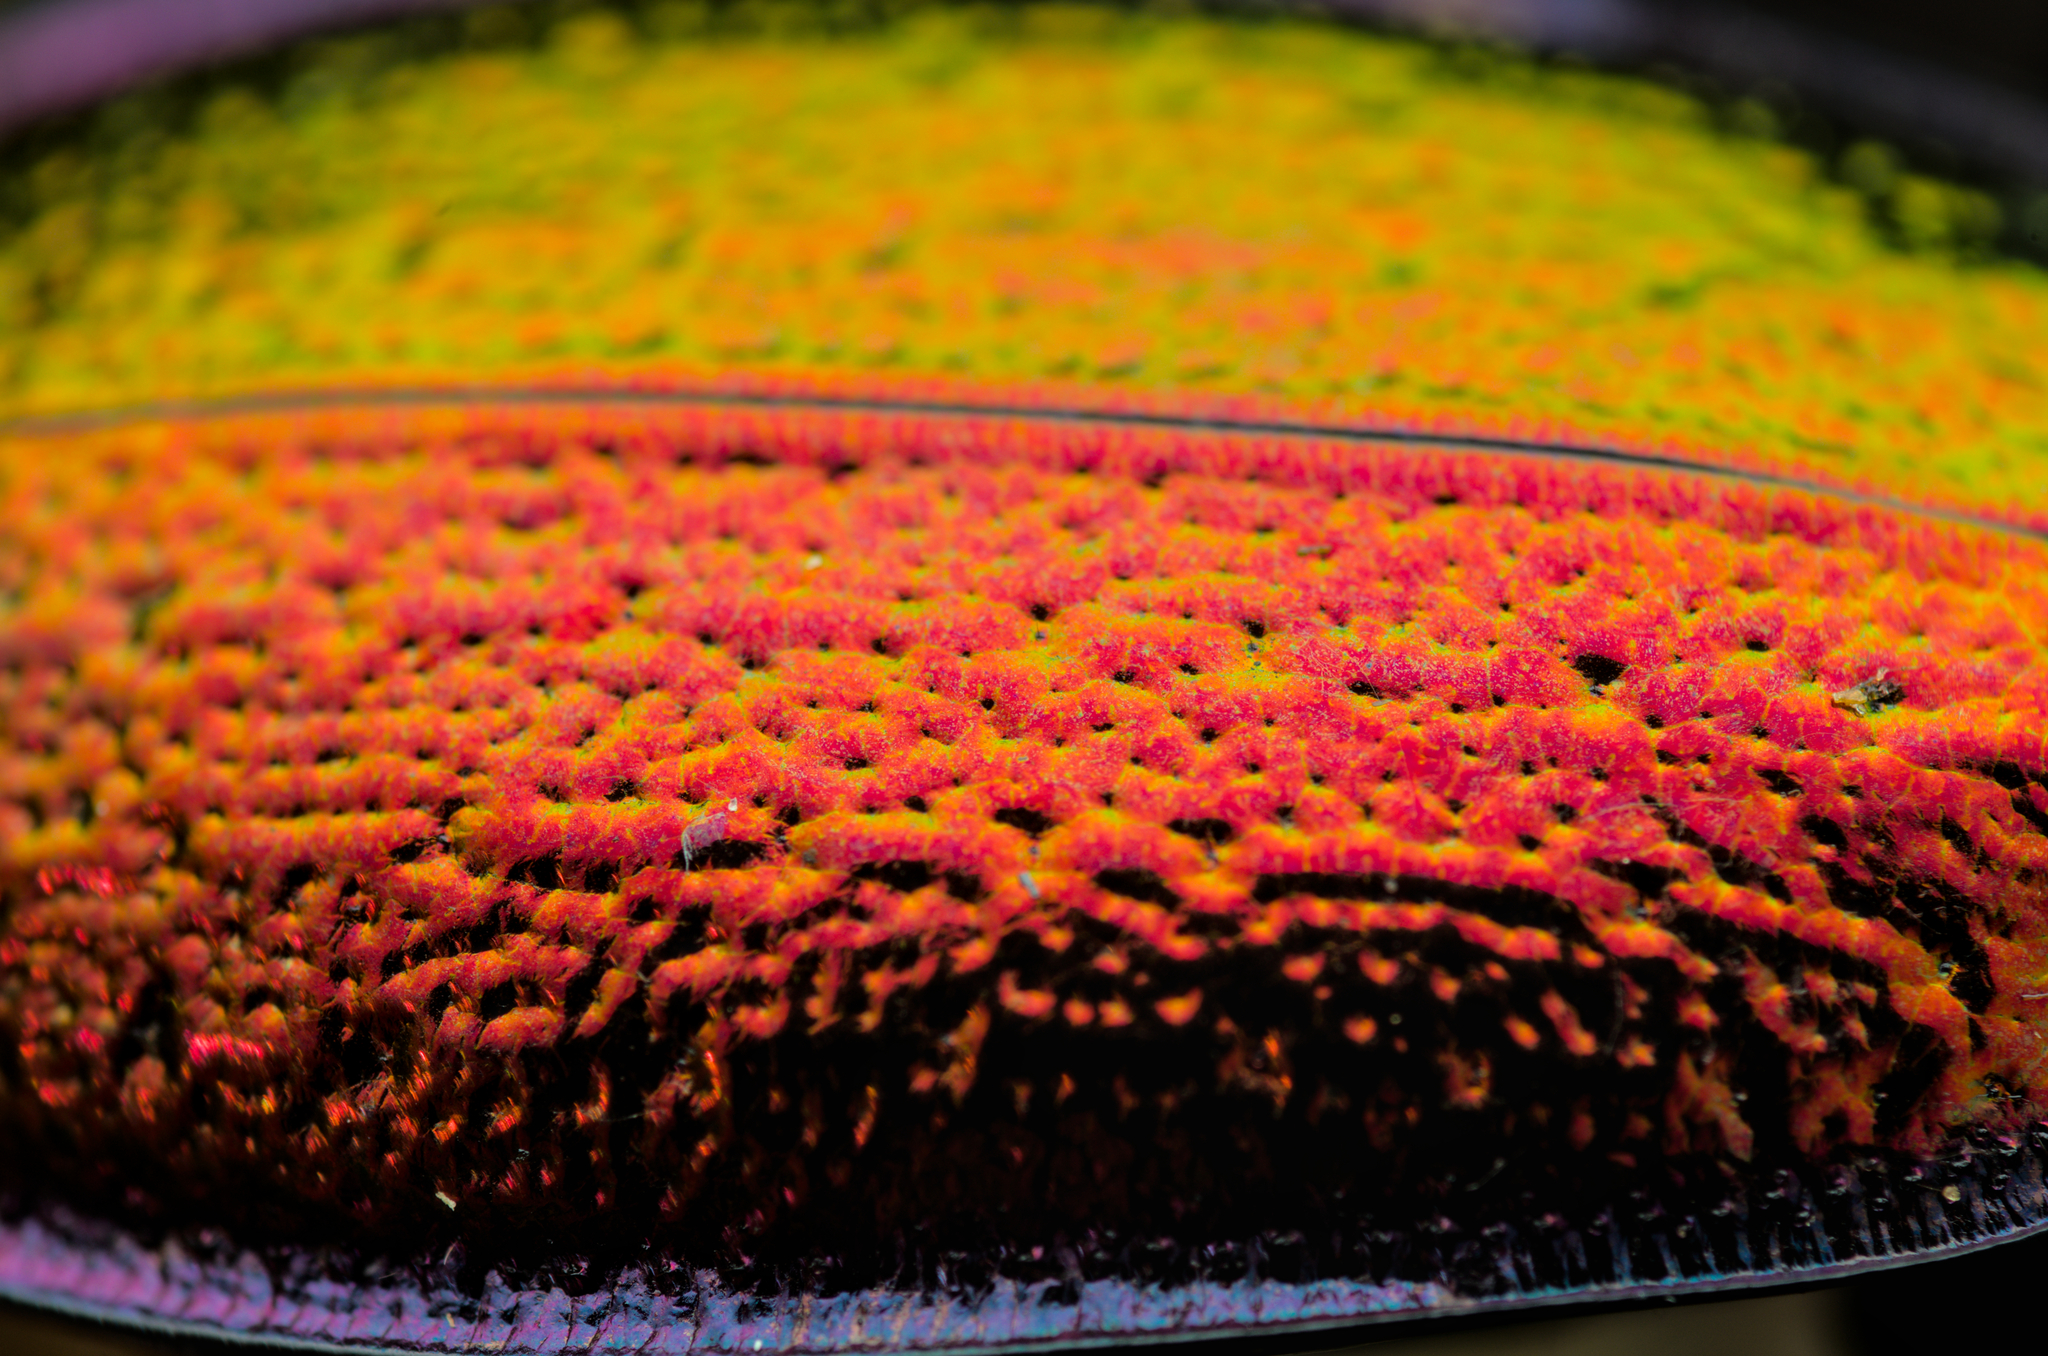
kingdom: Animalia
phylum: Arthropoda
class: Insecta
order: Coleoptera
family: Carabidae
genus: Carabus
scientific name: Carabus hispanus
